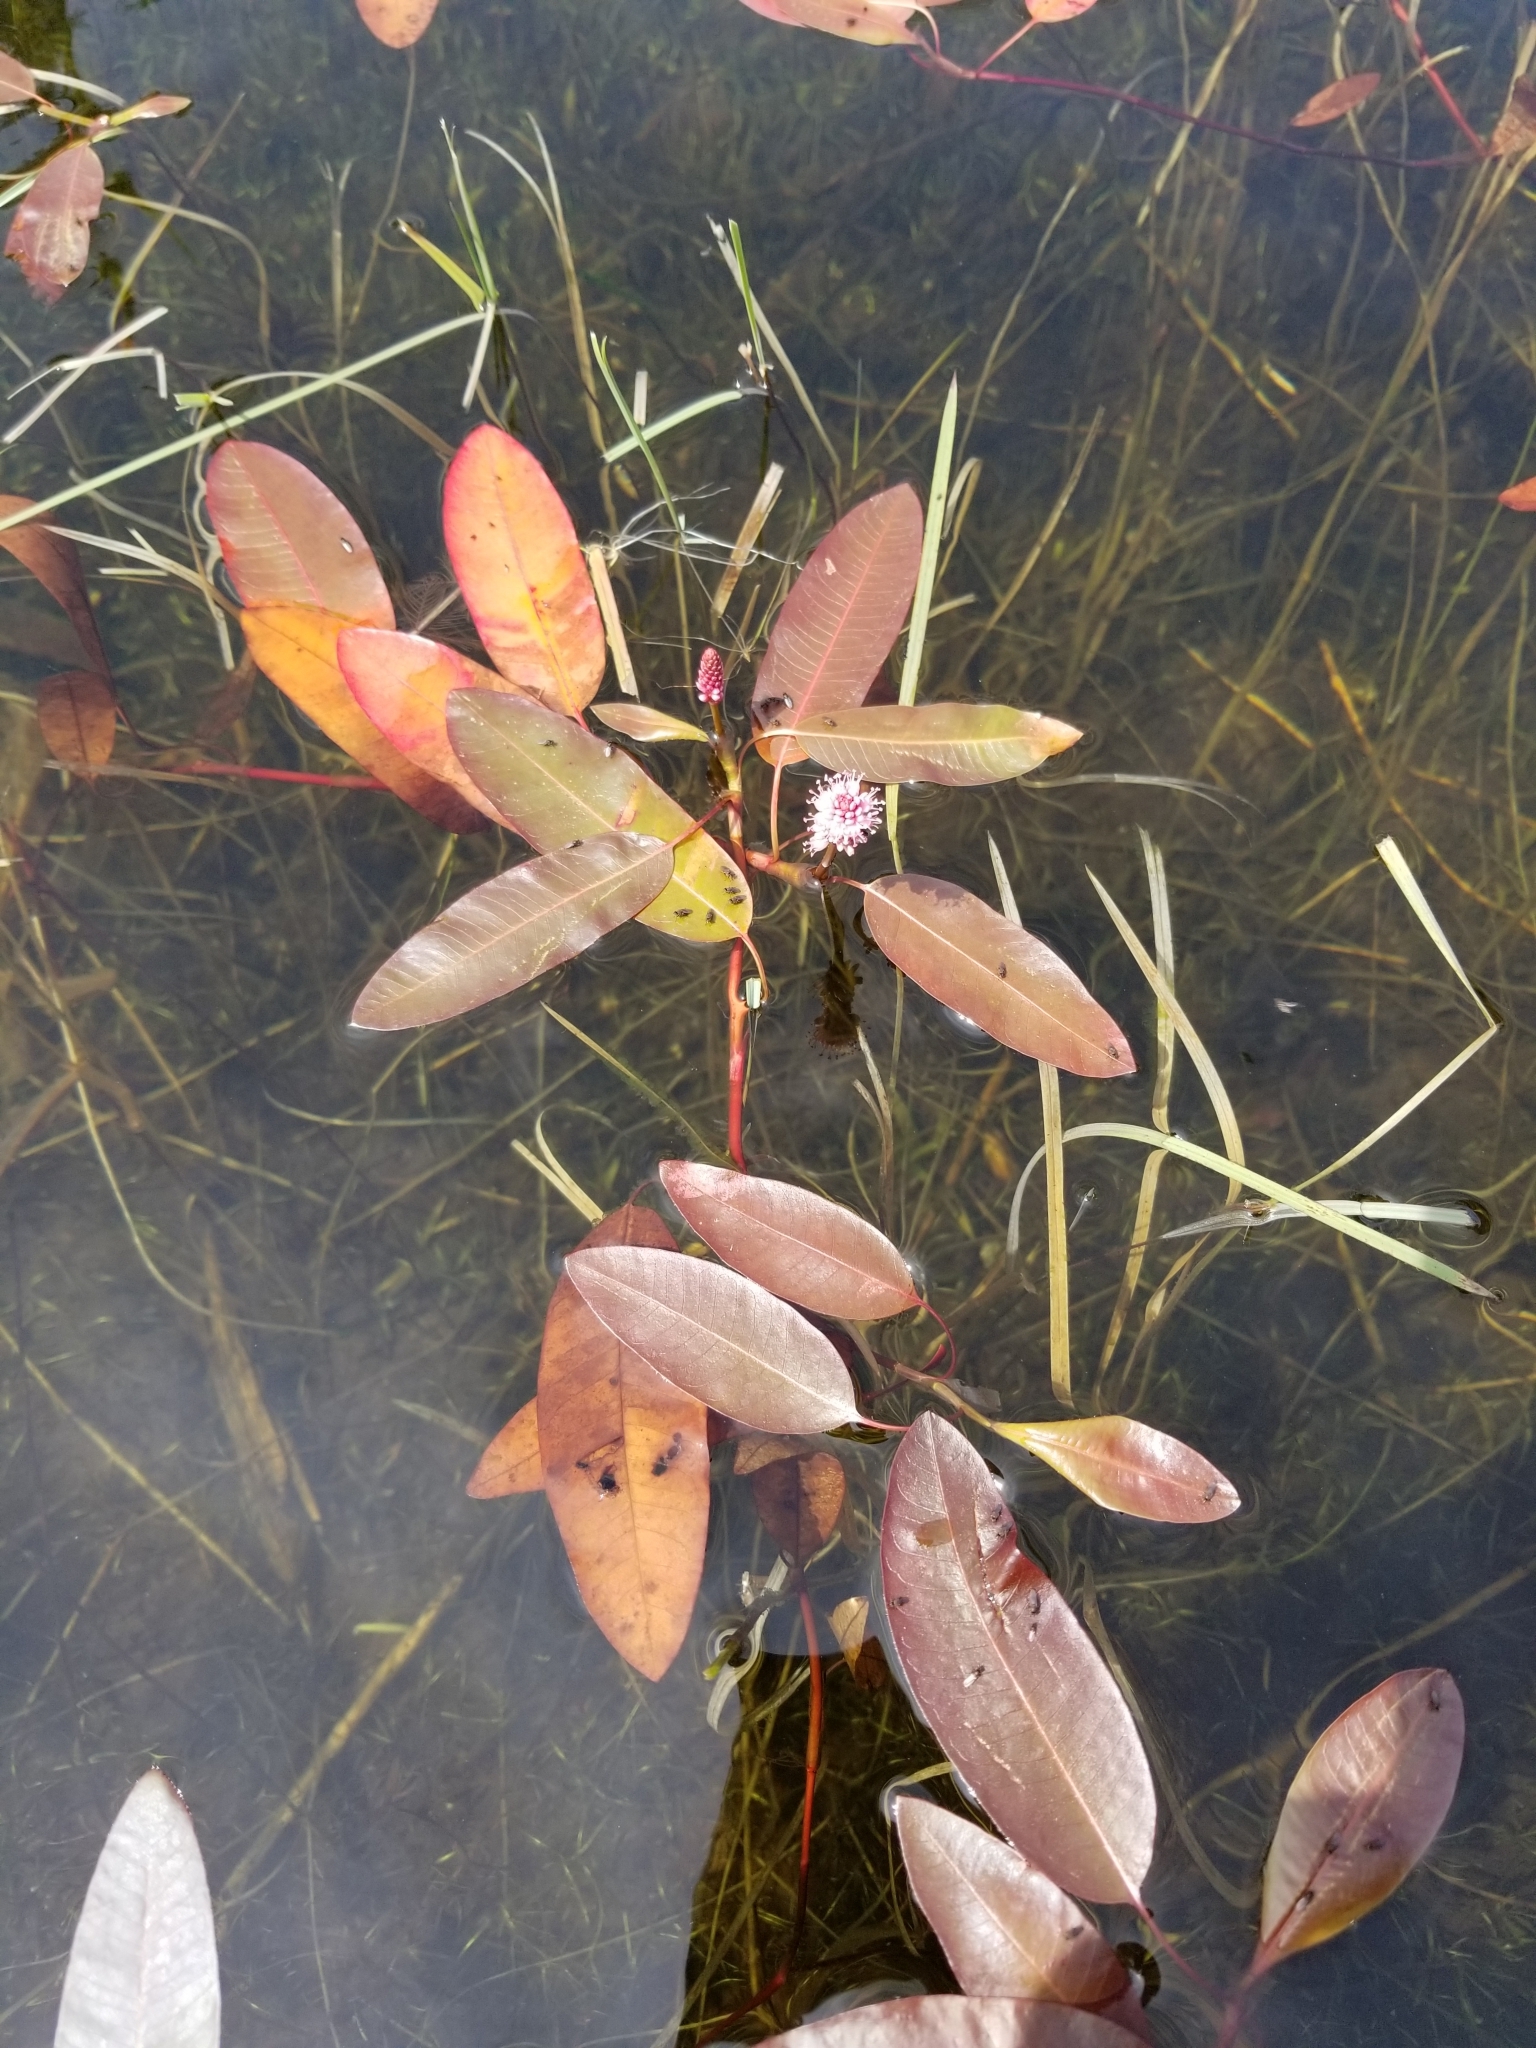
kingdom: Plantae
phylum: Tracheophyta
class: Magnoliopsida
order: Caryophyllales
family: Polygonaceae
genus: Persicaria
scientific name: Persicaria amphibia
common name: Amphibious bistort
